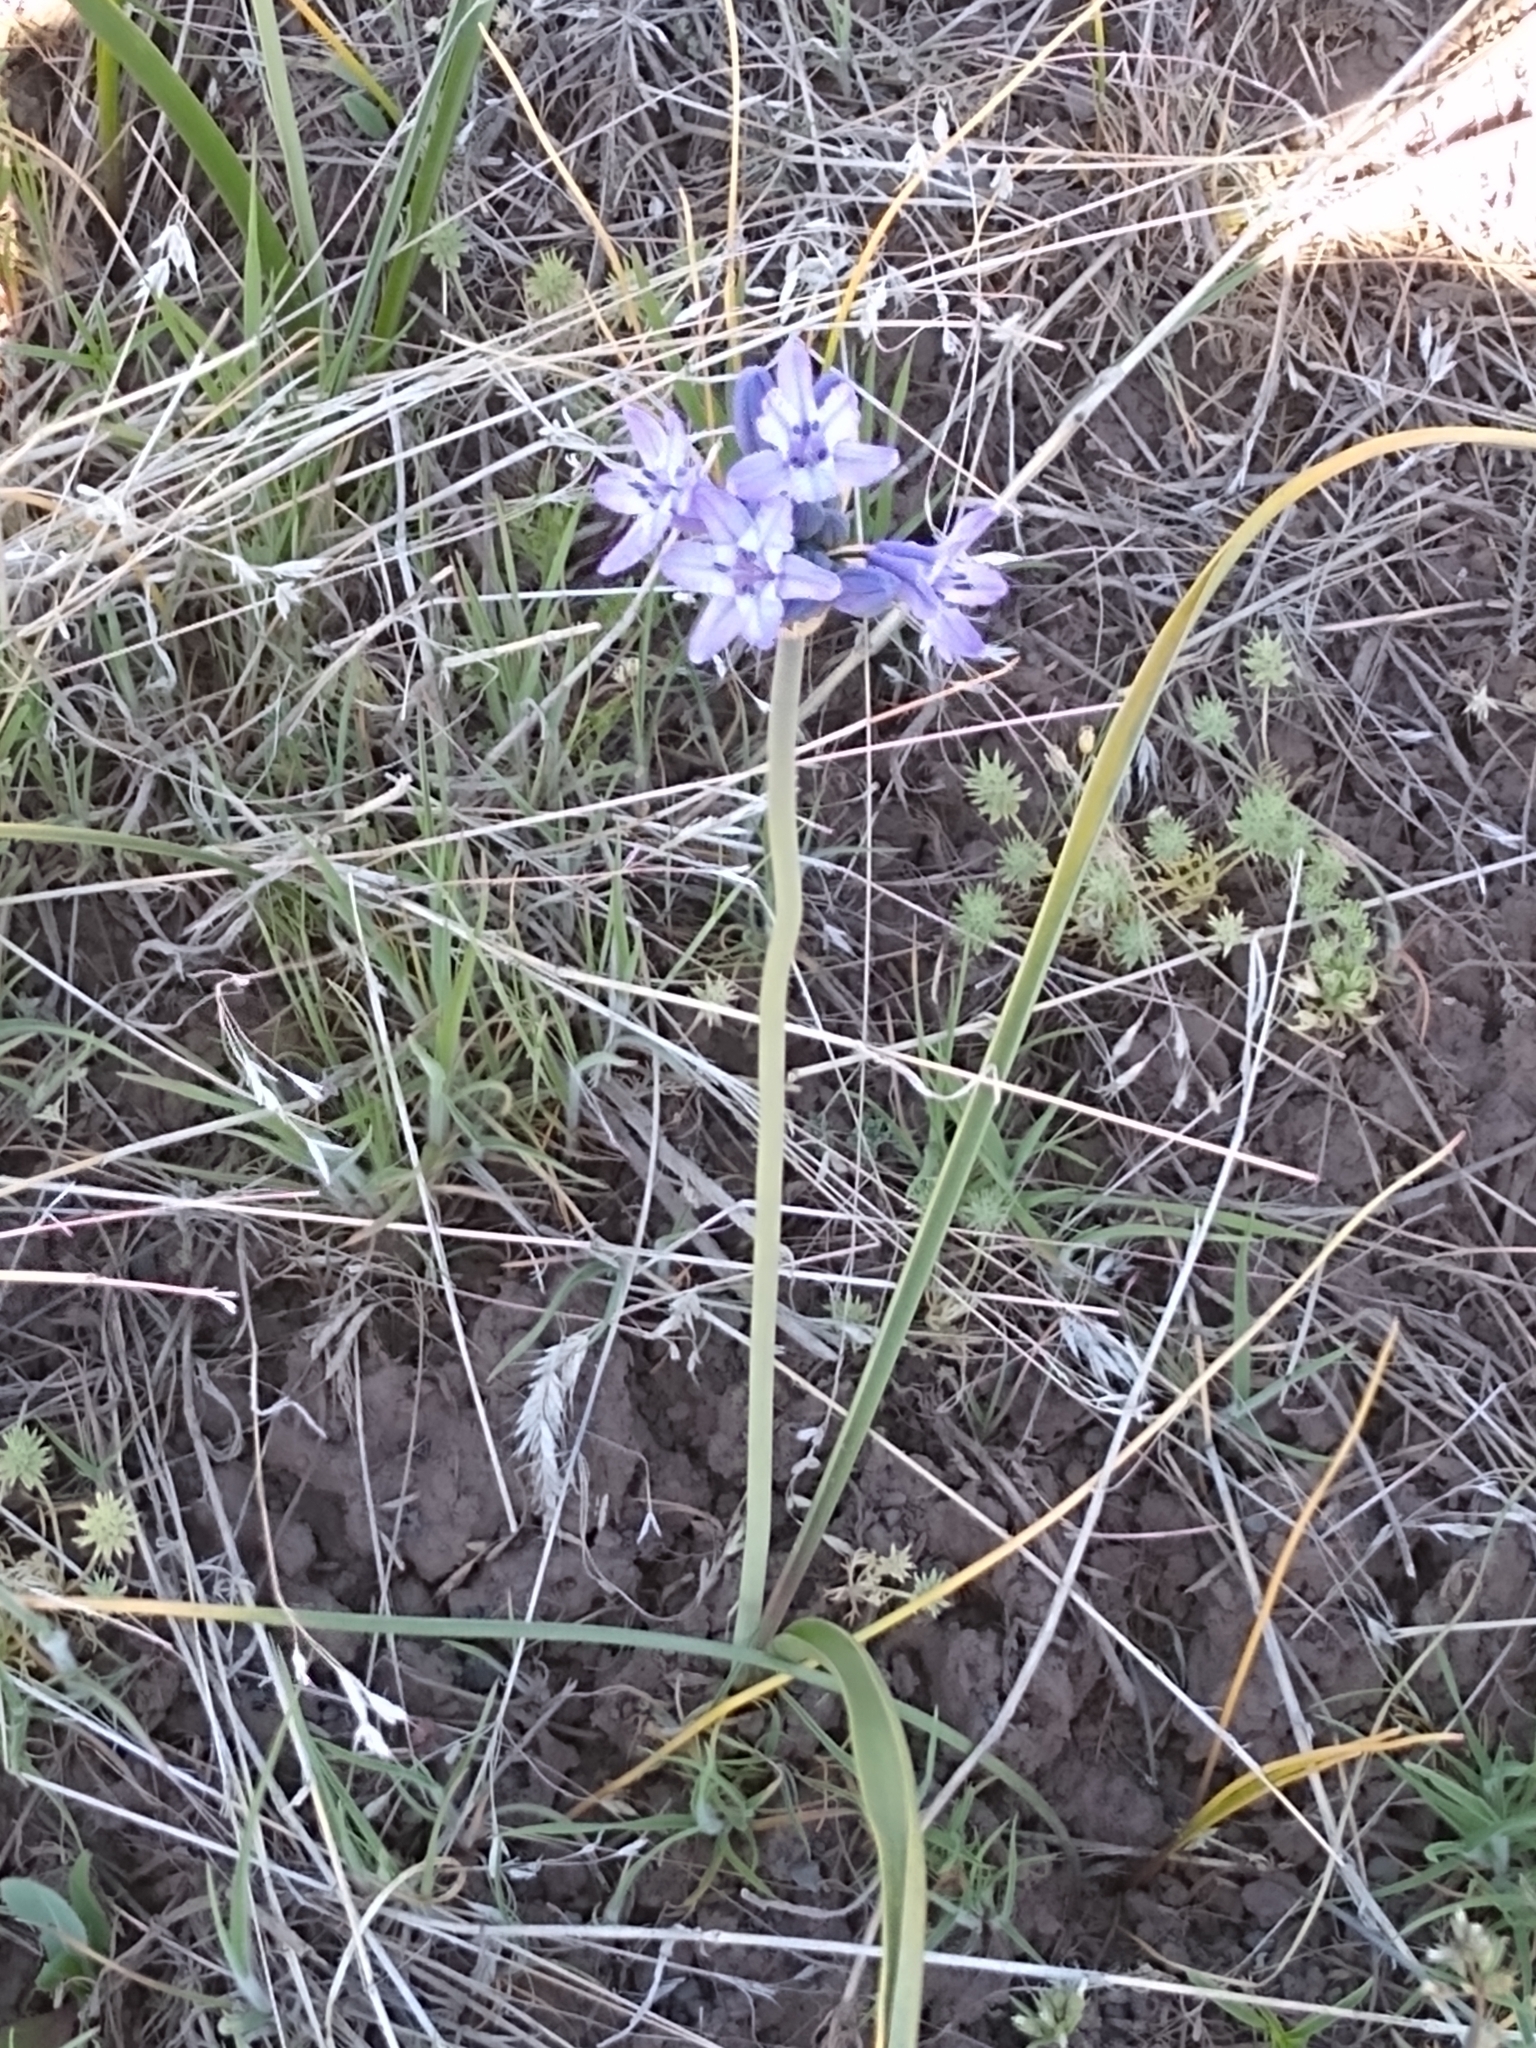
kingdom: Plantae
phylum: Tracheophyta
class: Liliopsida
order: Asparagales
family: Asparagaceae
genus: Triteleia
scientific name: Triteleia grandiflora
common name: Wild hyacinth
